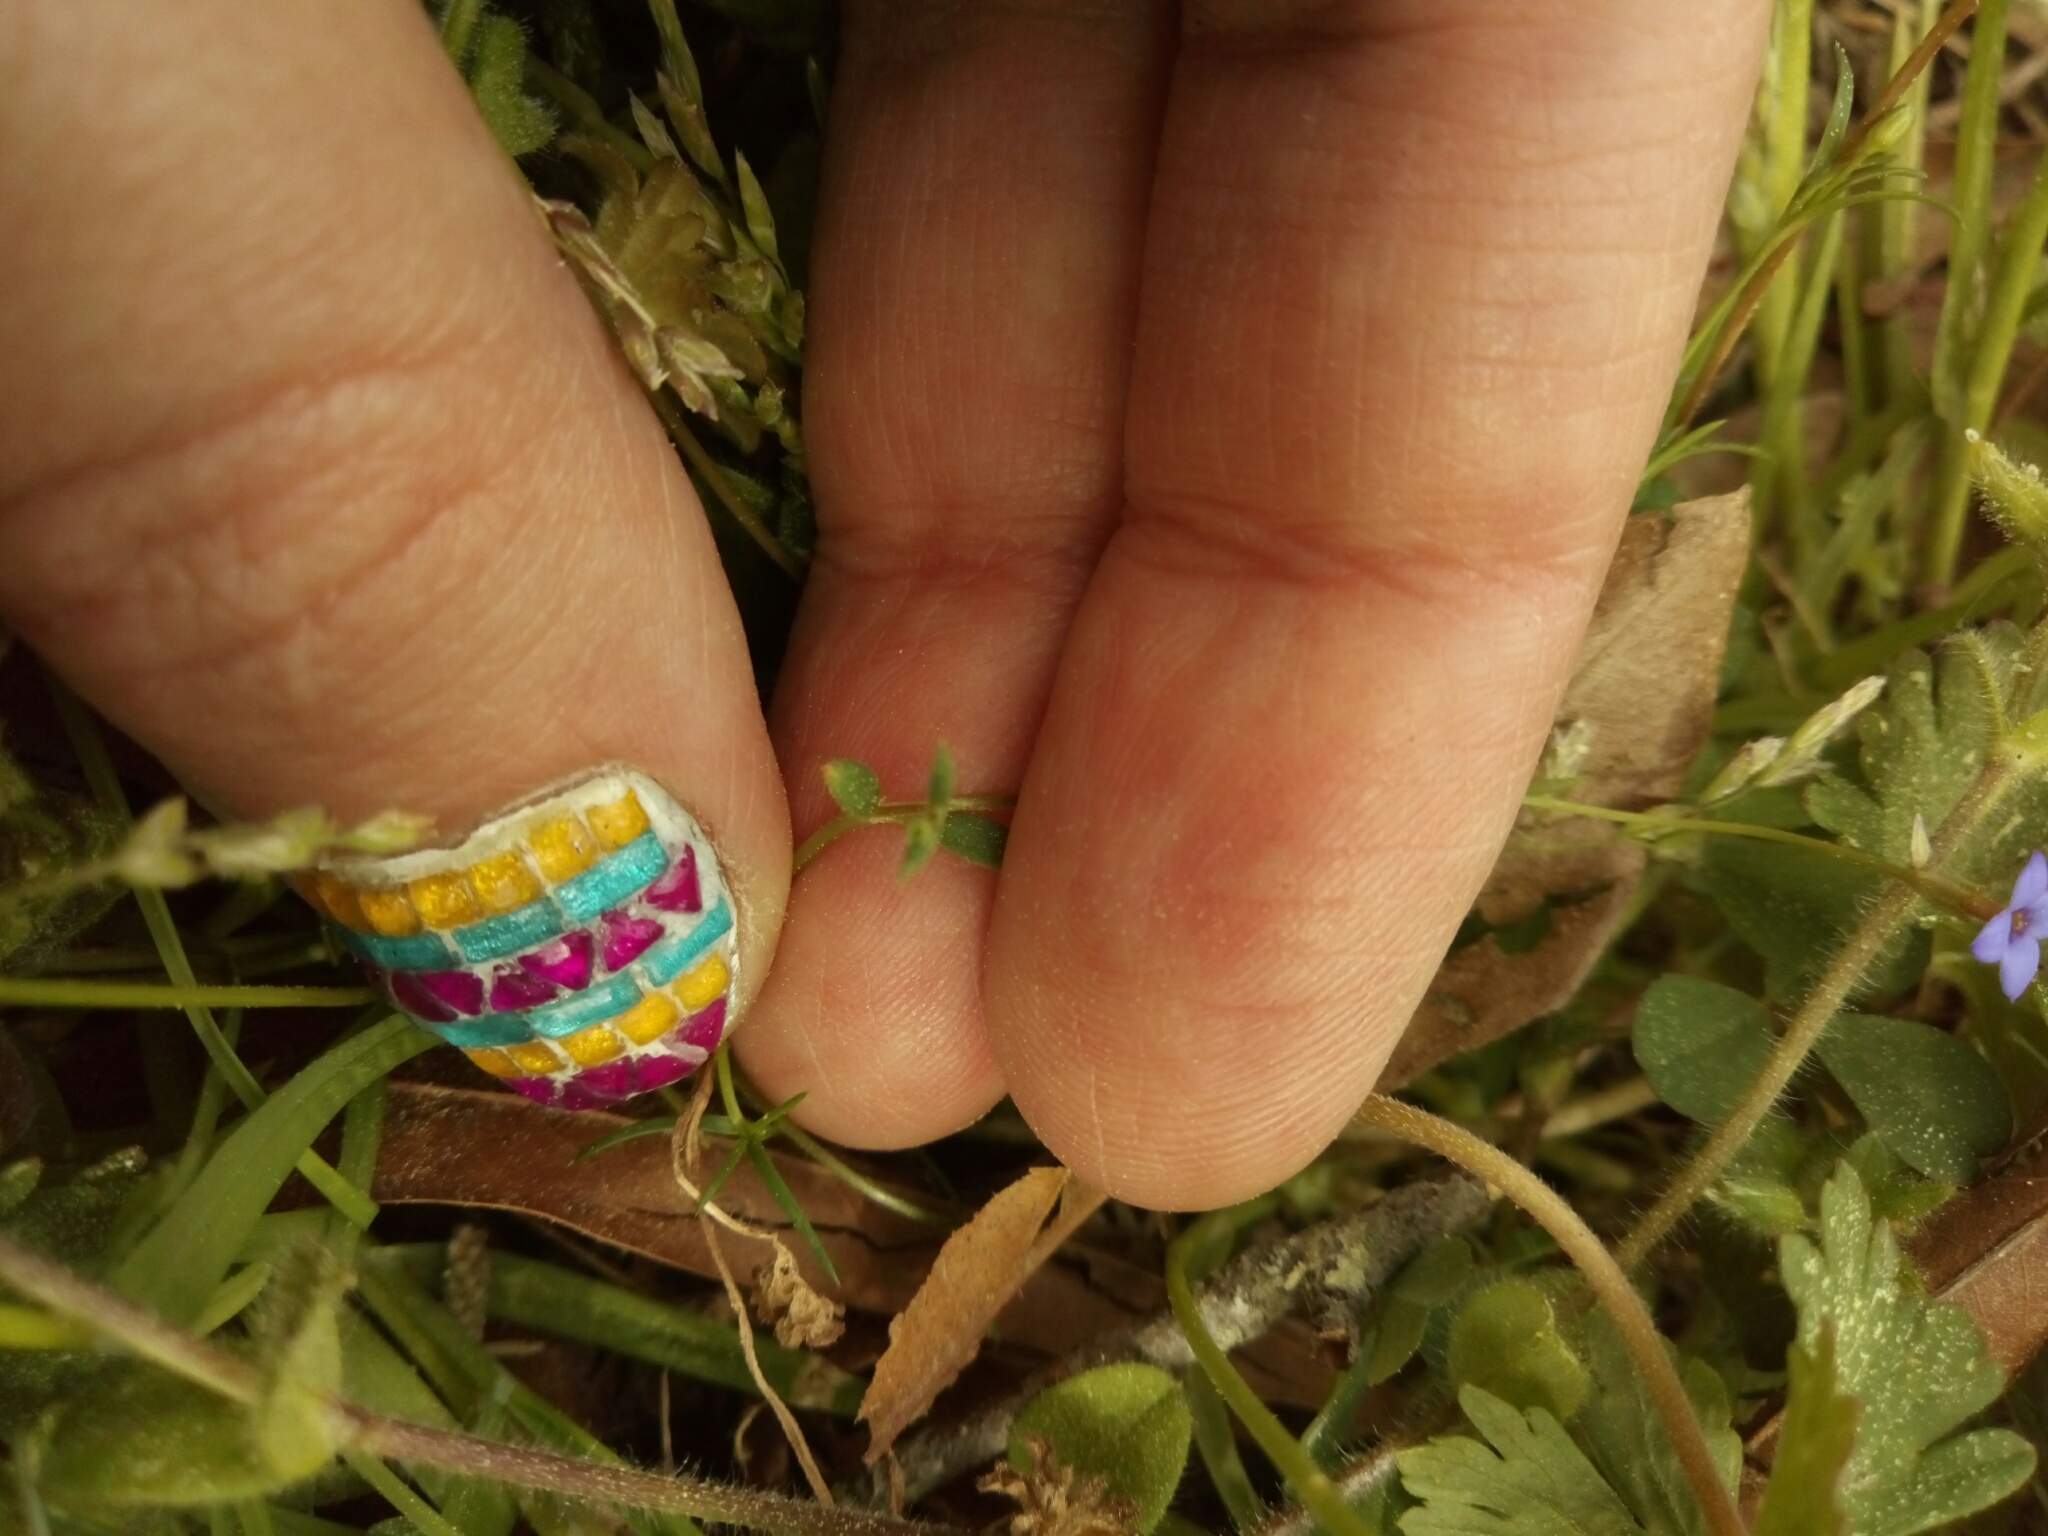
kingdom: Plantae
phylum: Tracheophyta
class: Magnoliopsida
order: Gentianales
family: Rubiaceae
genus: Houstonia
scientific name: Houstonia pusilla
